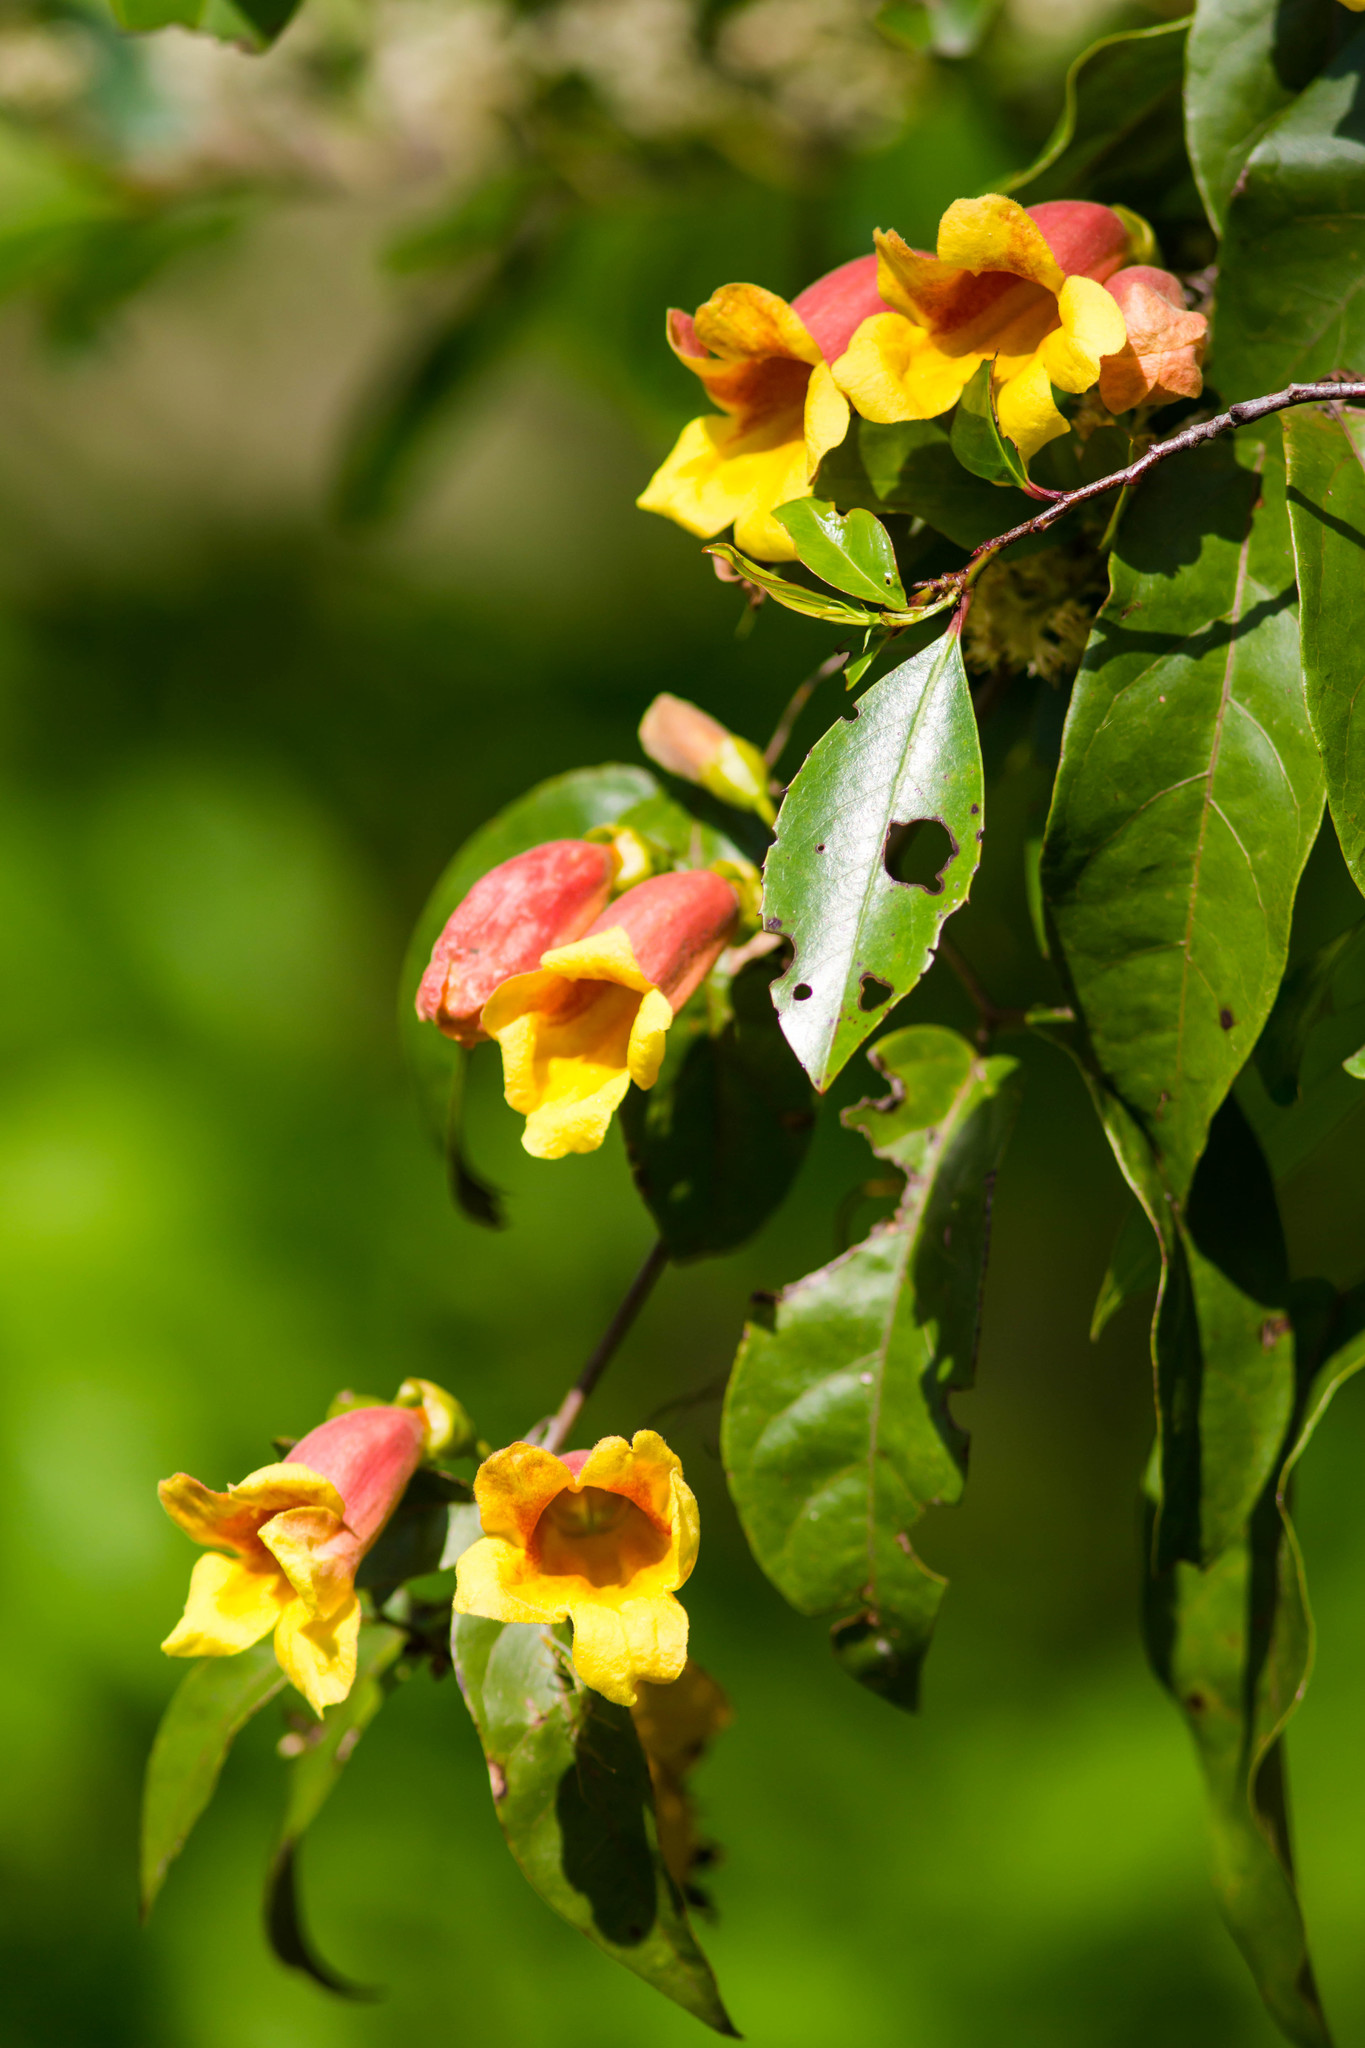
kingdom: Plantae
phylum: Tracheophyta
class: Magnoliopsida
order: Lamiales
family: Bignoniaceae
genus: Bignonia
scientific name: Bignonia capreolata
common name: Crossvine
